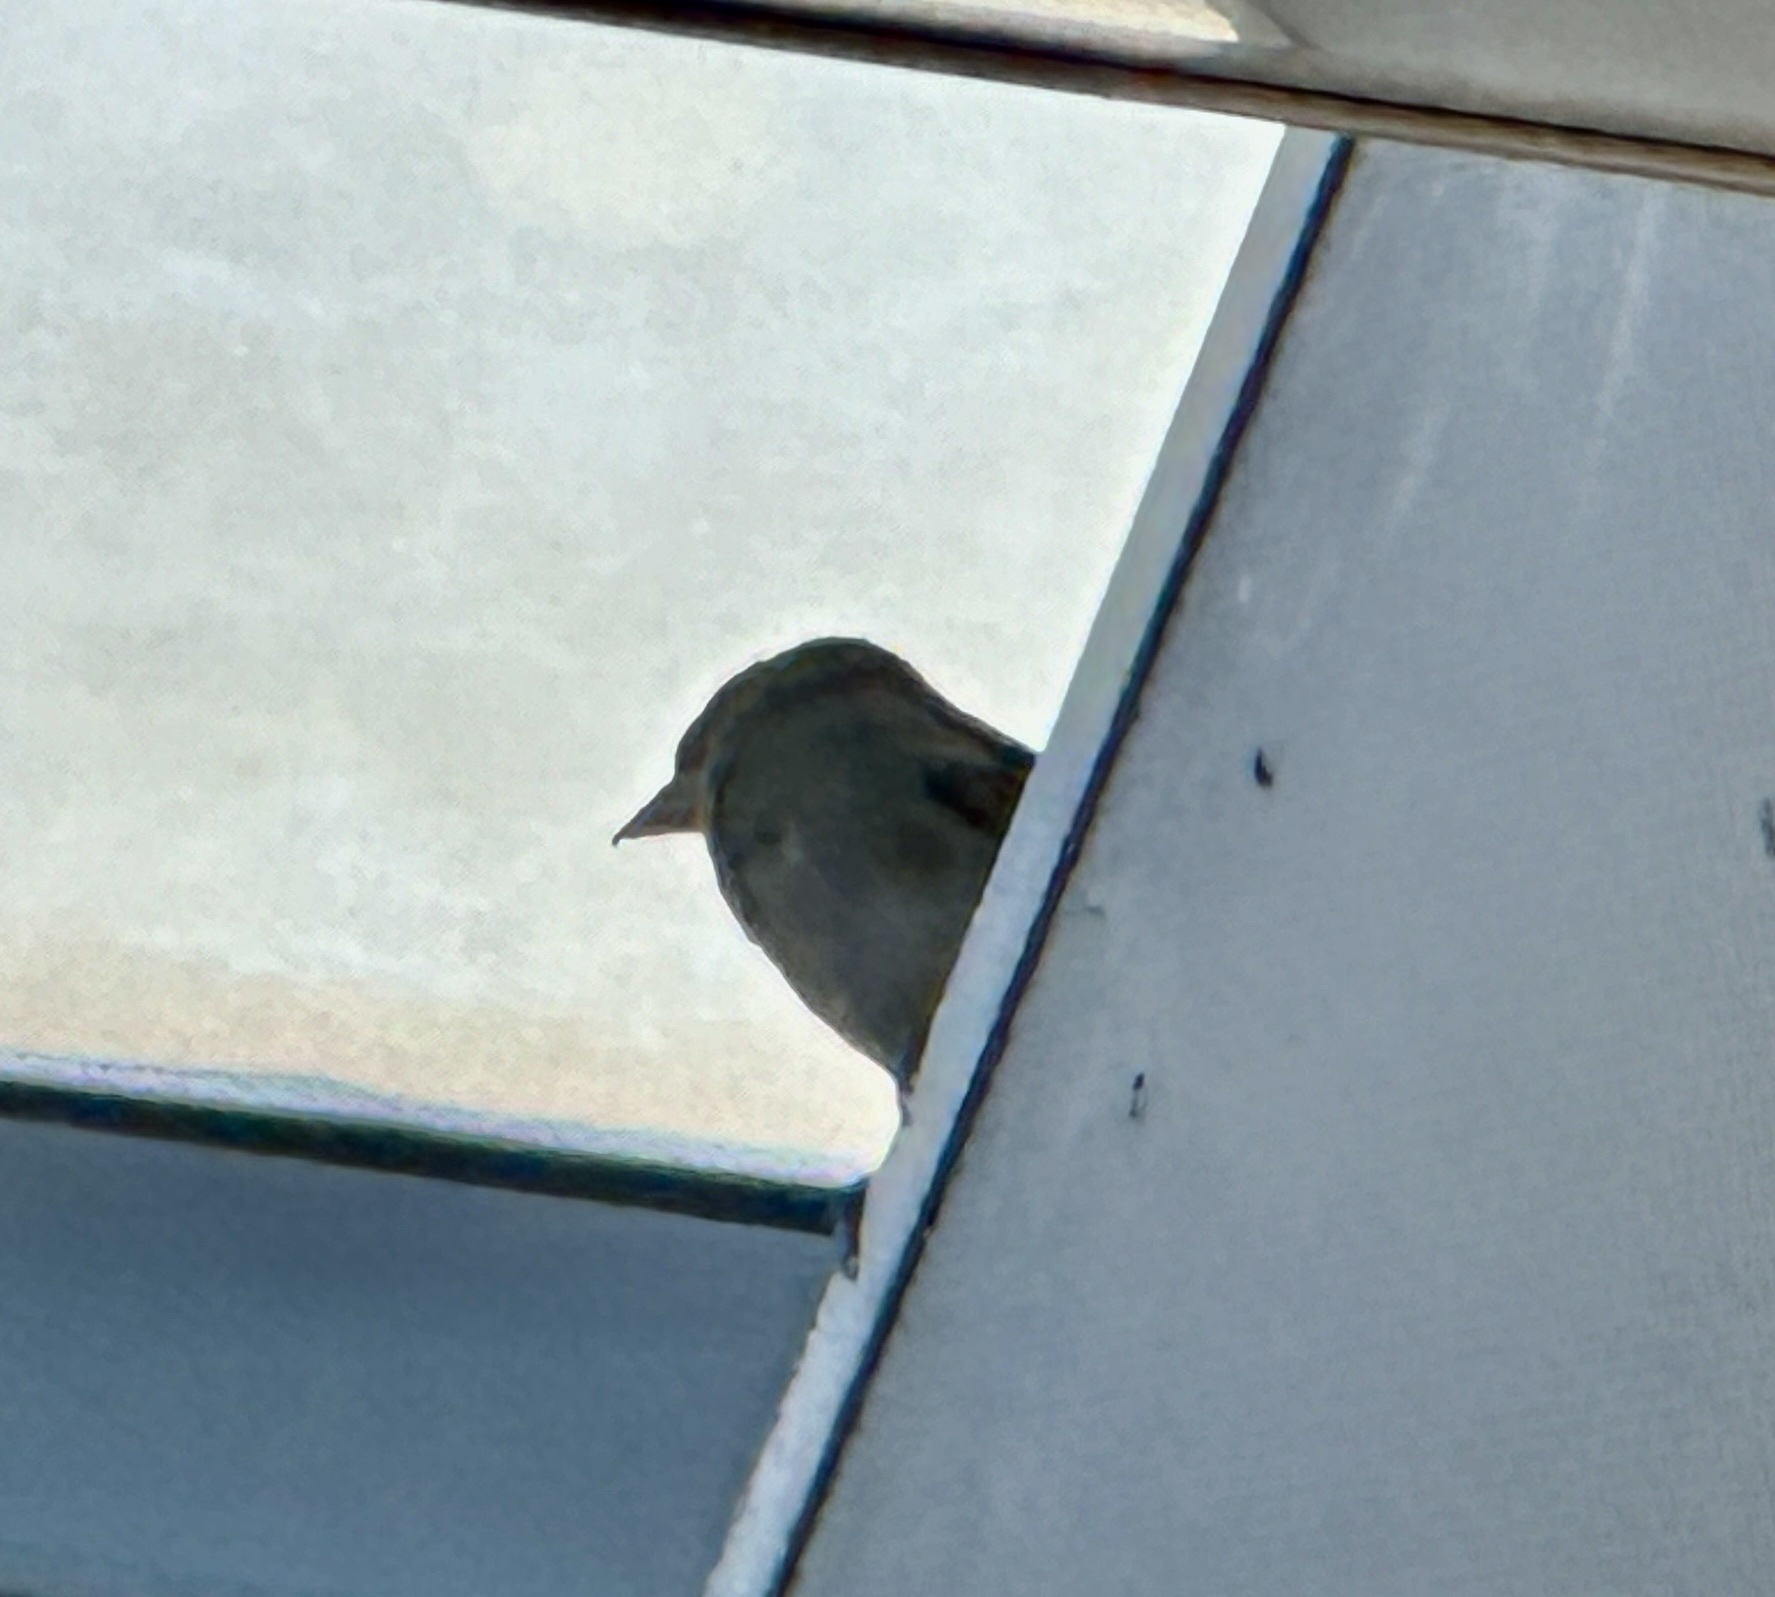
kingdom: Animalia
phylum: Chordata
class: Aves
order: Passeriformes
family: Passeridae
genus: Passer
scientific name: Passer domesticus
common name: House sparrow
